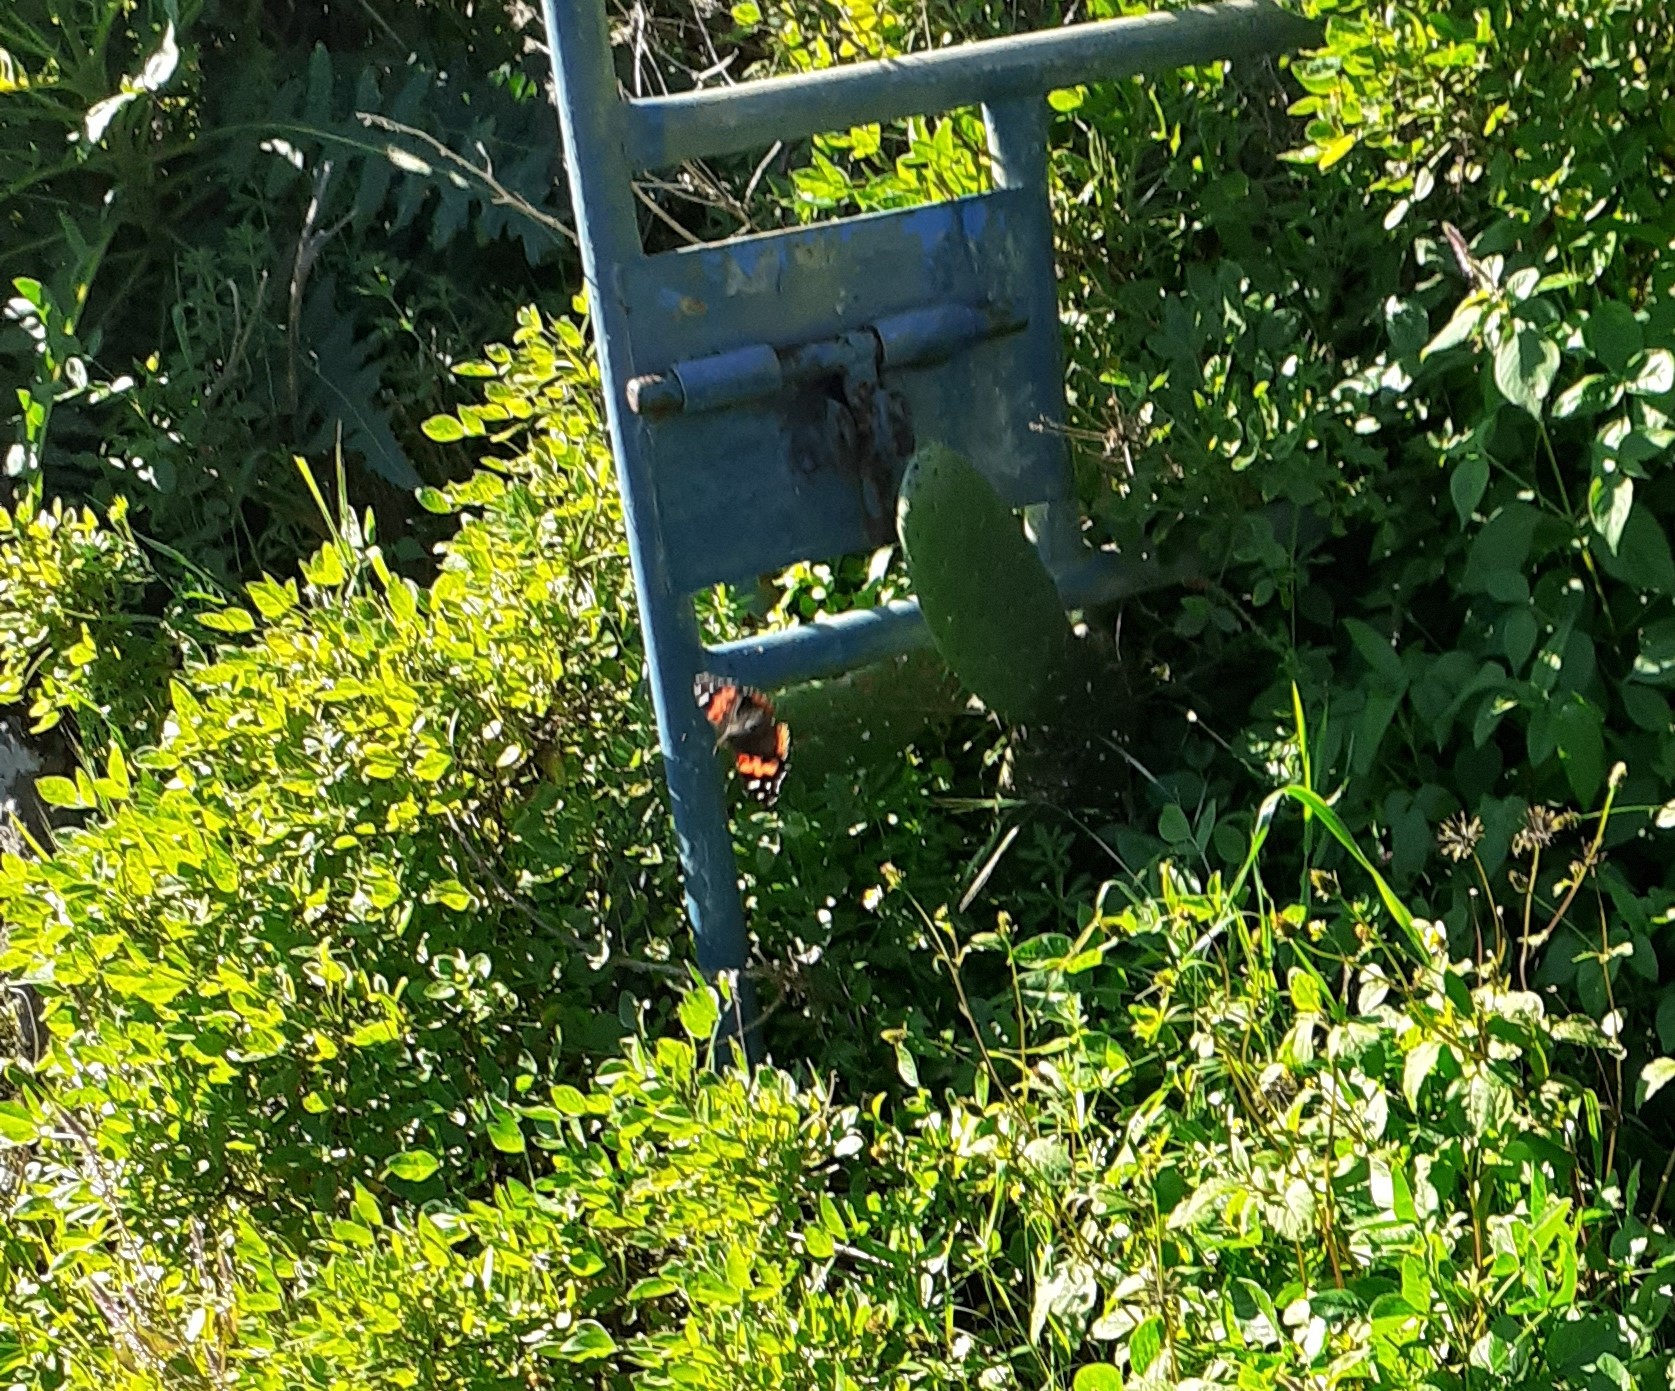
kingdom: Animalia
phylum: Arthropoda
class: Insecta
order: Lepidoptera
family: Nymphalidae
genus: Vanessa
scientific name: Vanessa vulcania
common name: Canary red admiral
